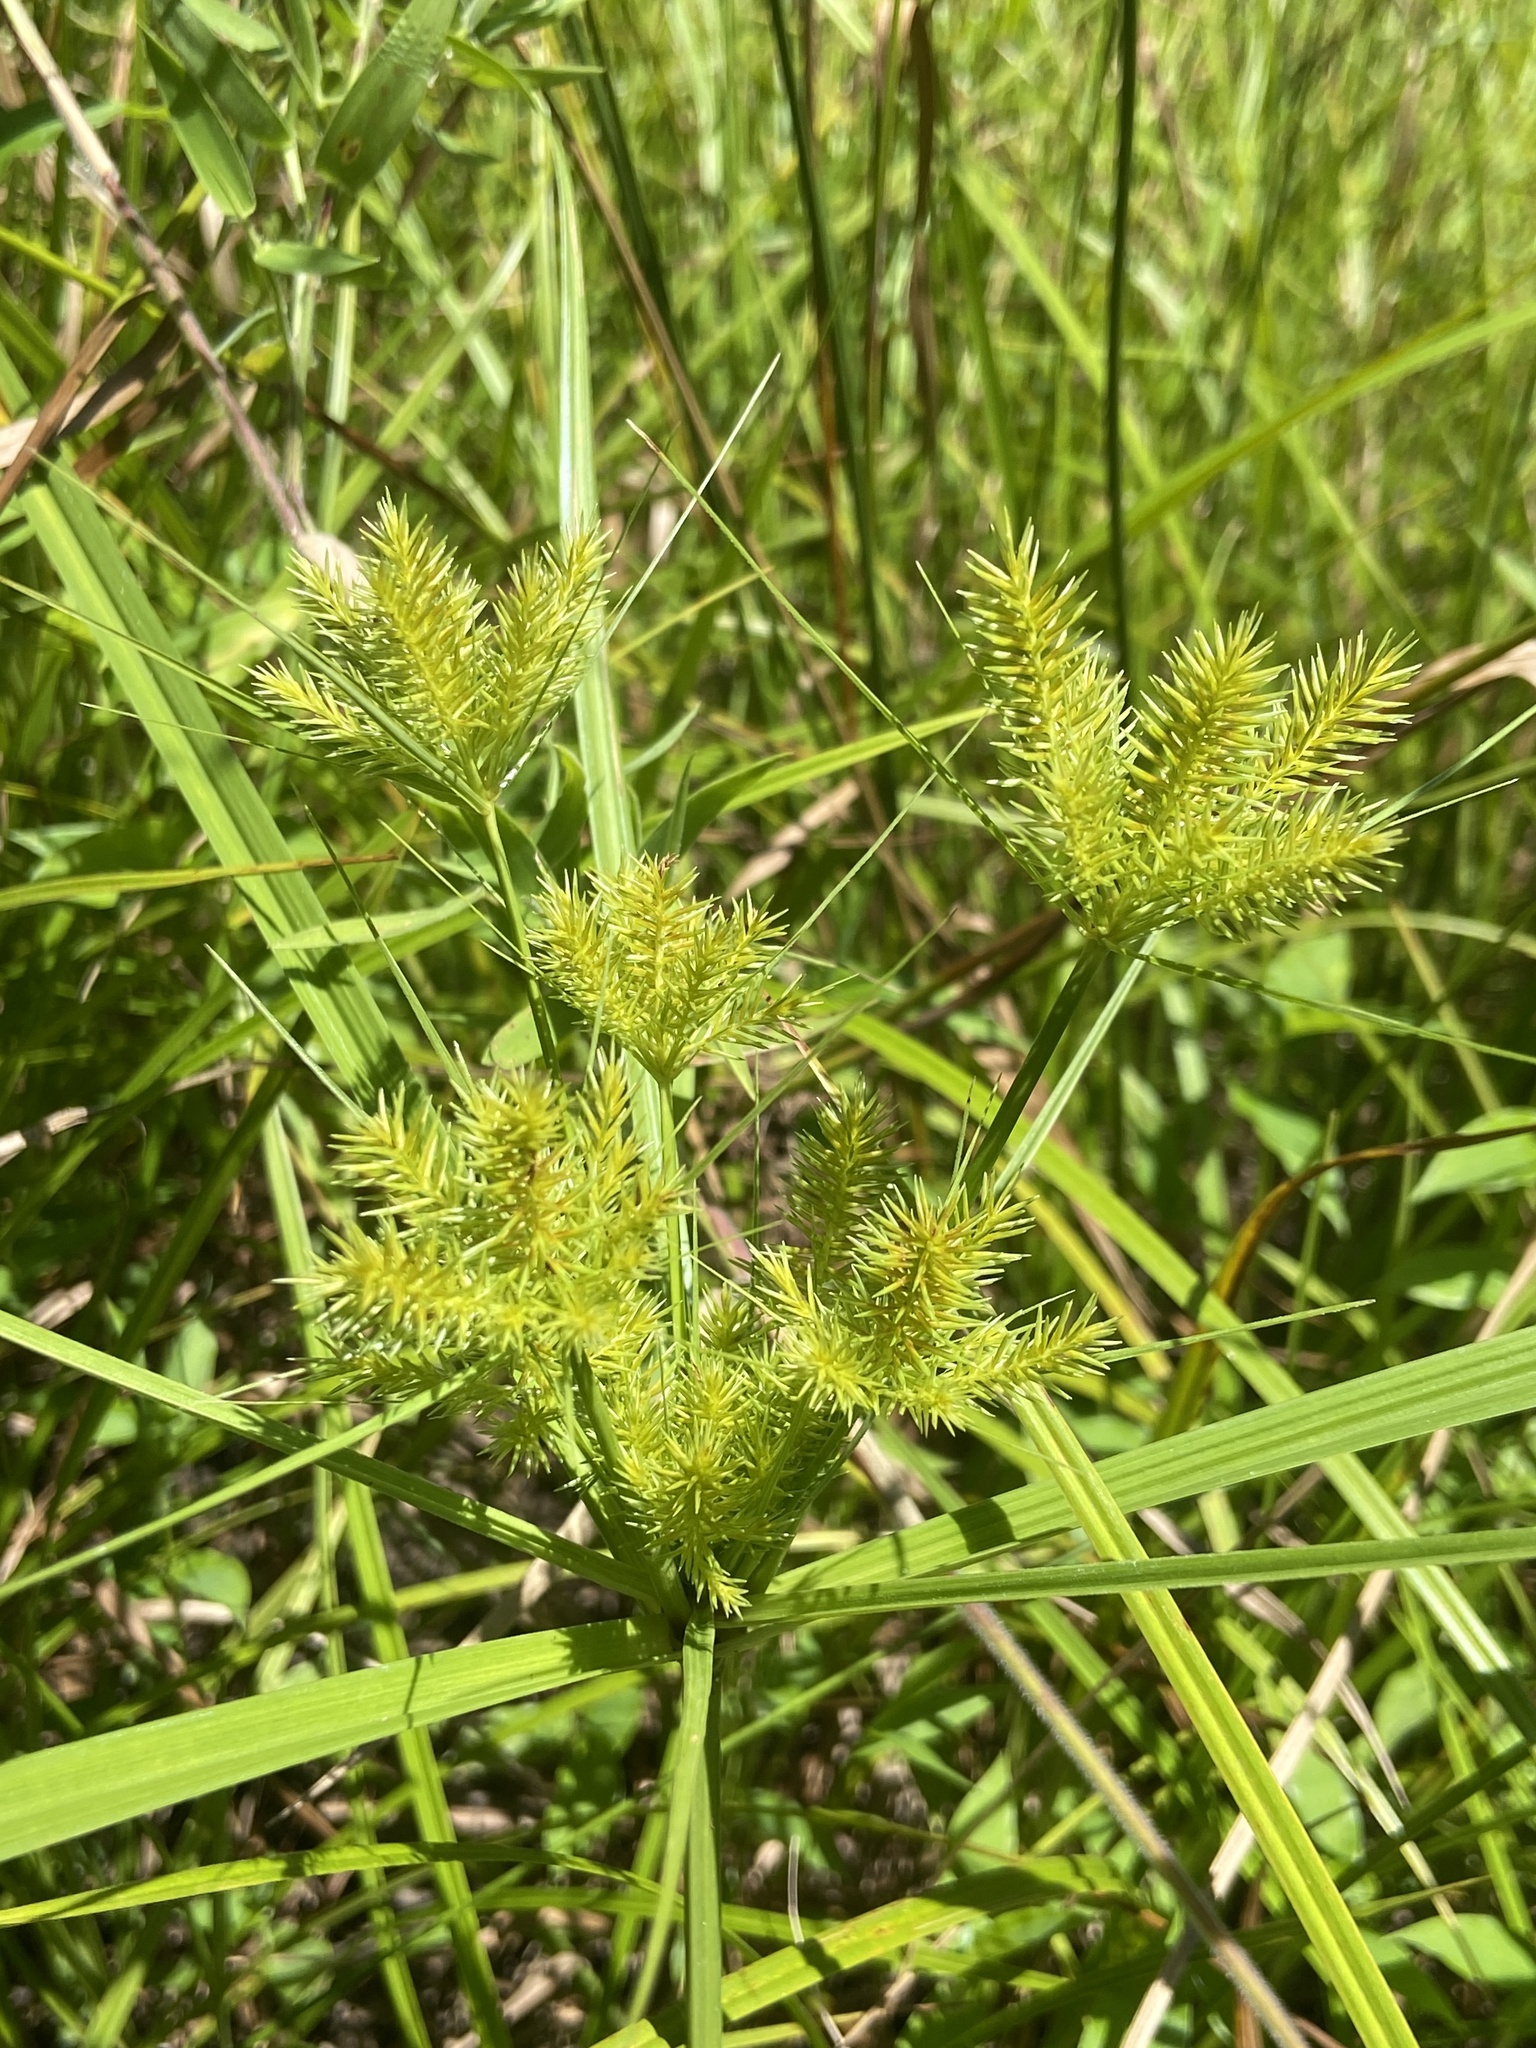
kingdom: Plantae
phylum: Tracheophyta
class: Liliopsida
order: Poales
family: Cyperaceae
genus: Cyperus
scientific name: Cyperus strigosus
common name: False nutsedge
